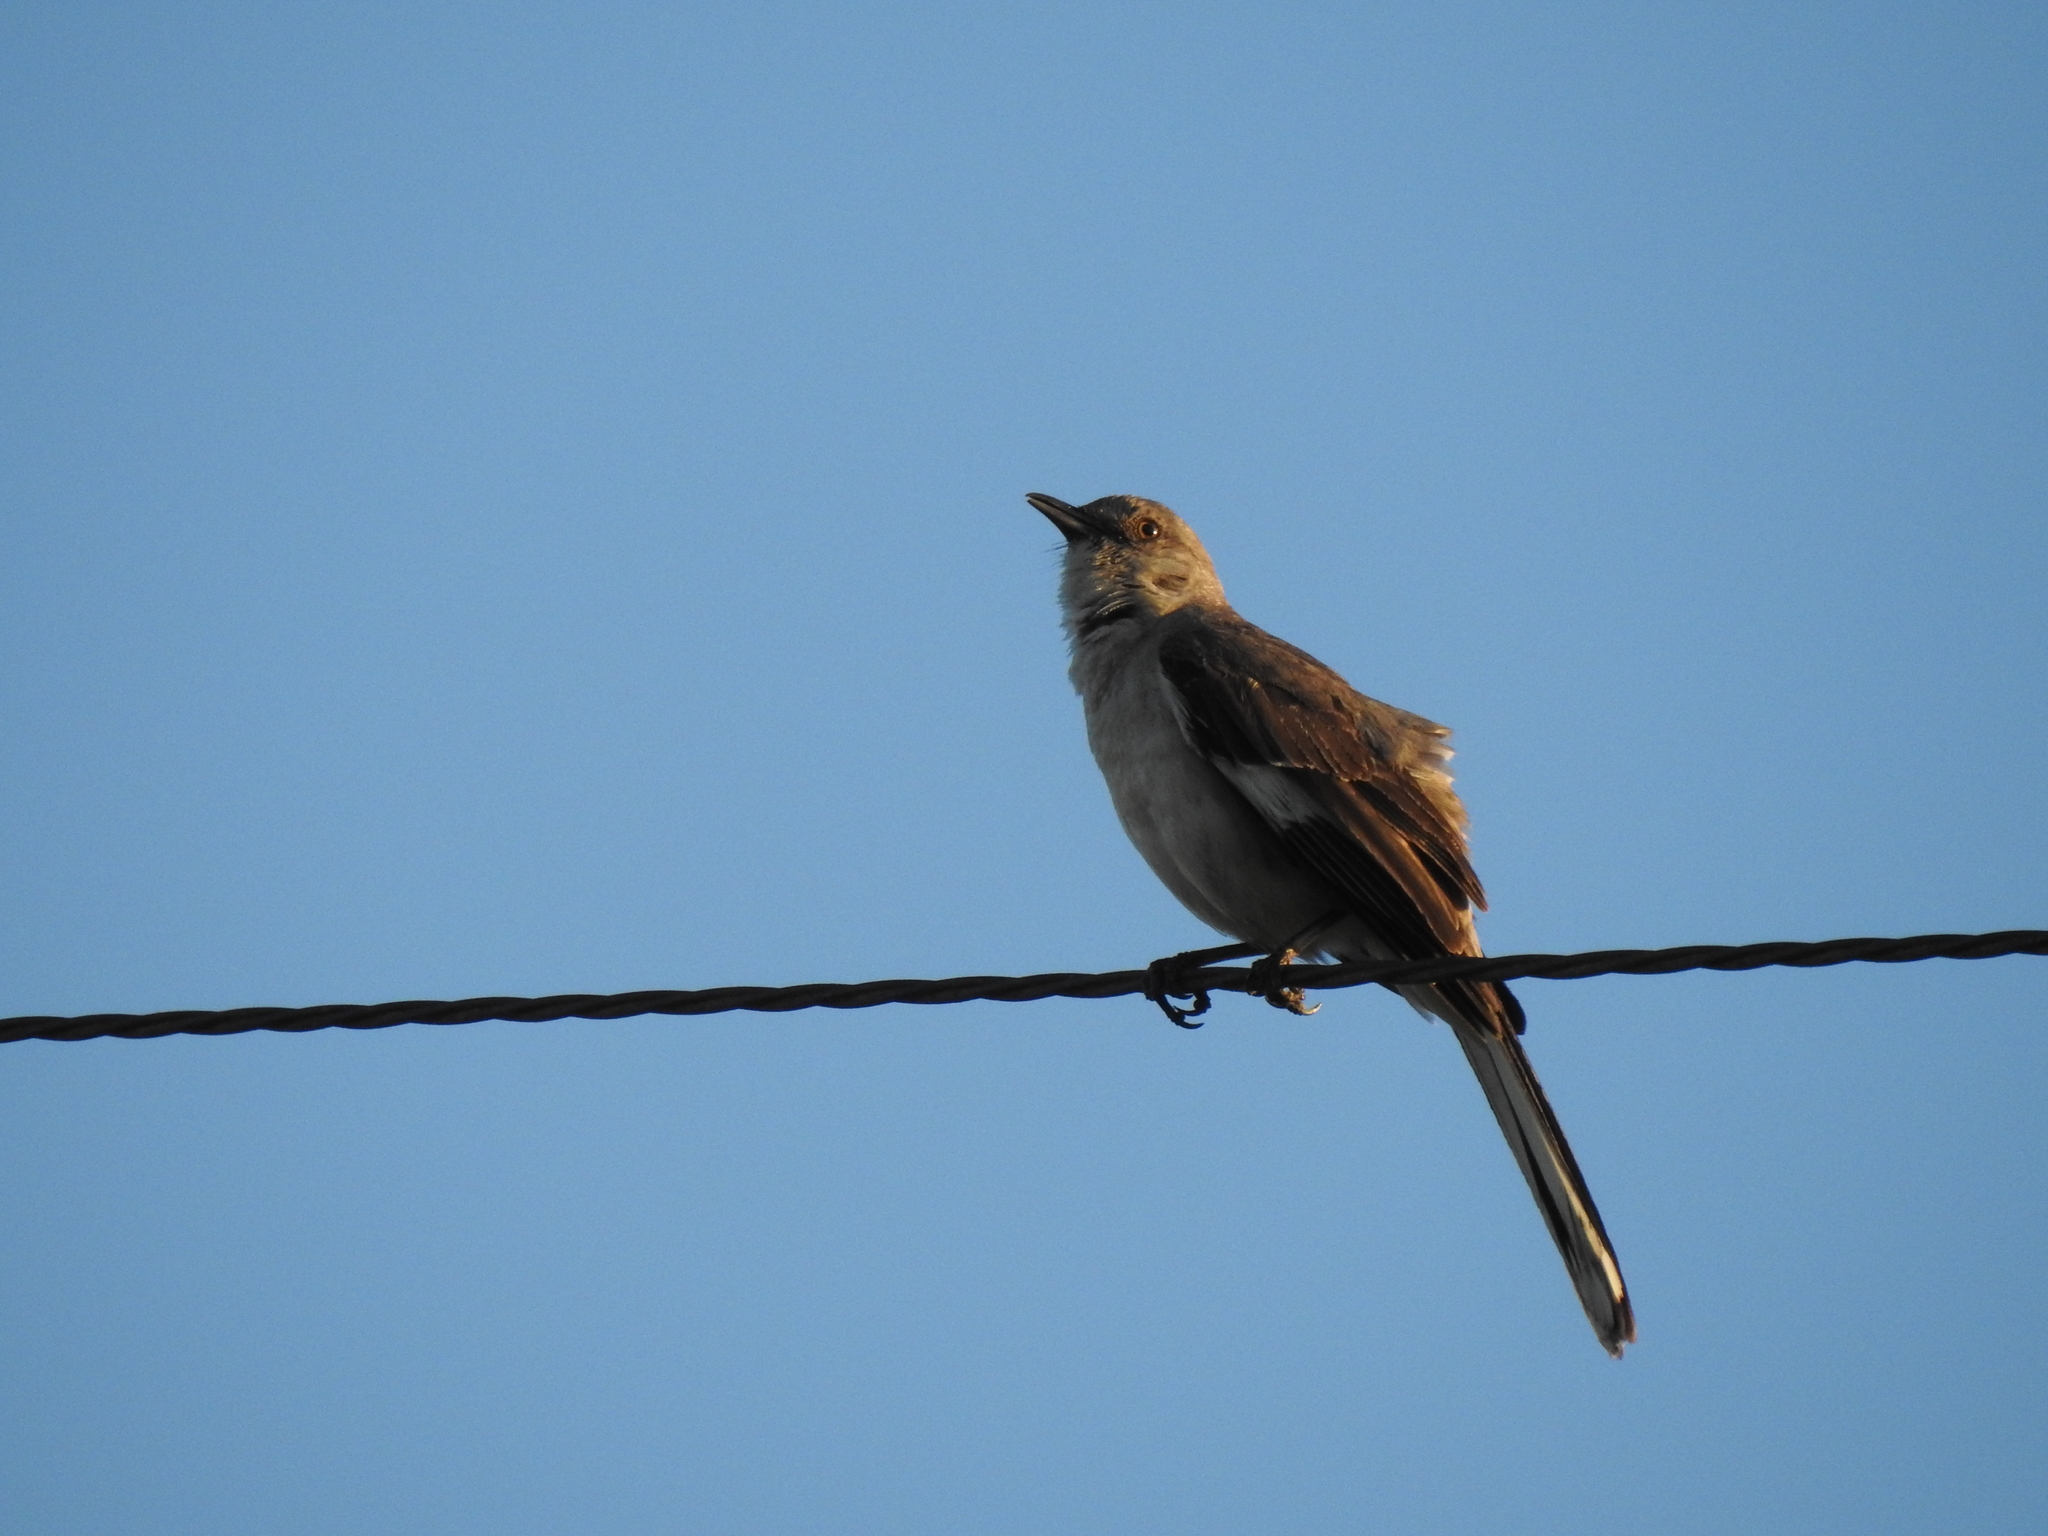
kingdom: Animalia
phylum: Chordata
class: Aves
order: Passeriformes
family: Mimidae
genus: Mimus
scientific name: Mimus polyglottos
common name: Northern mockingbird
